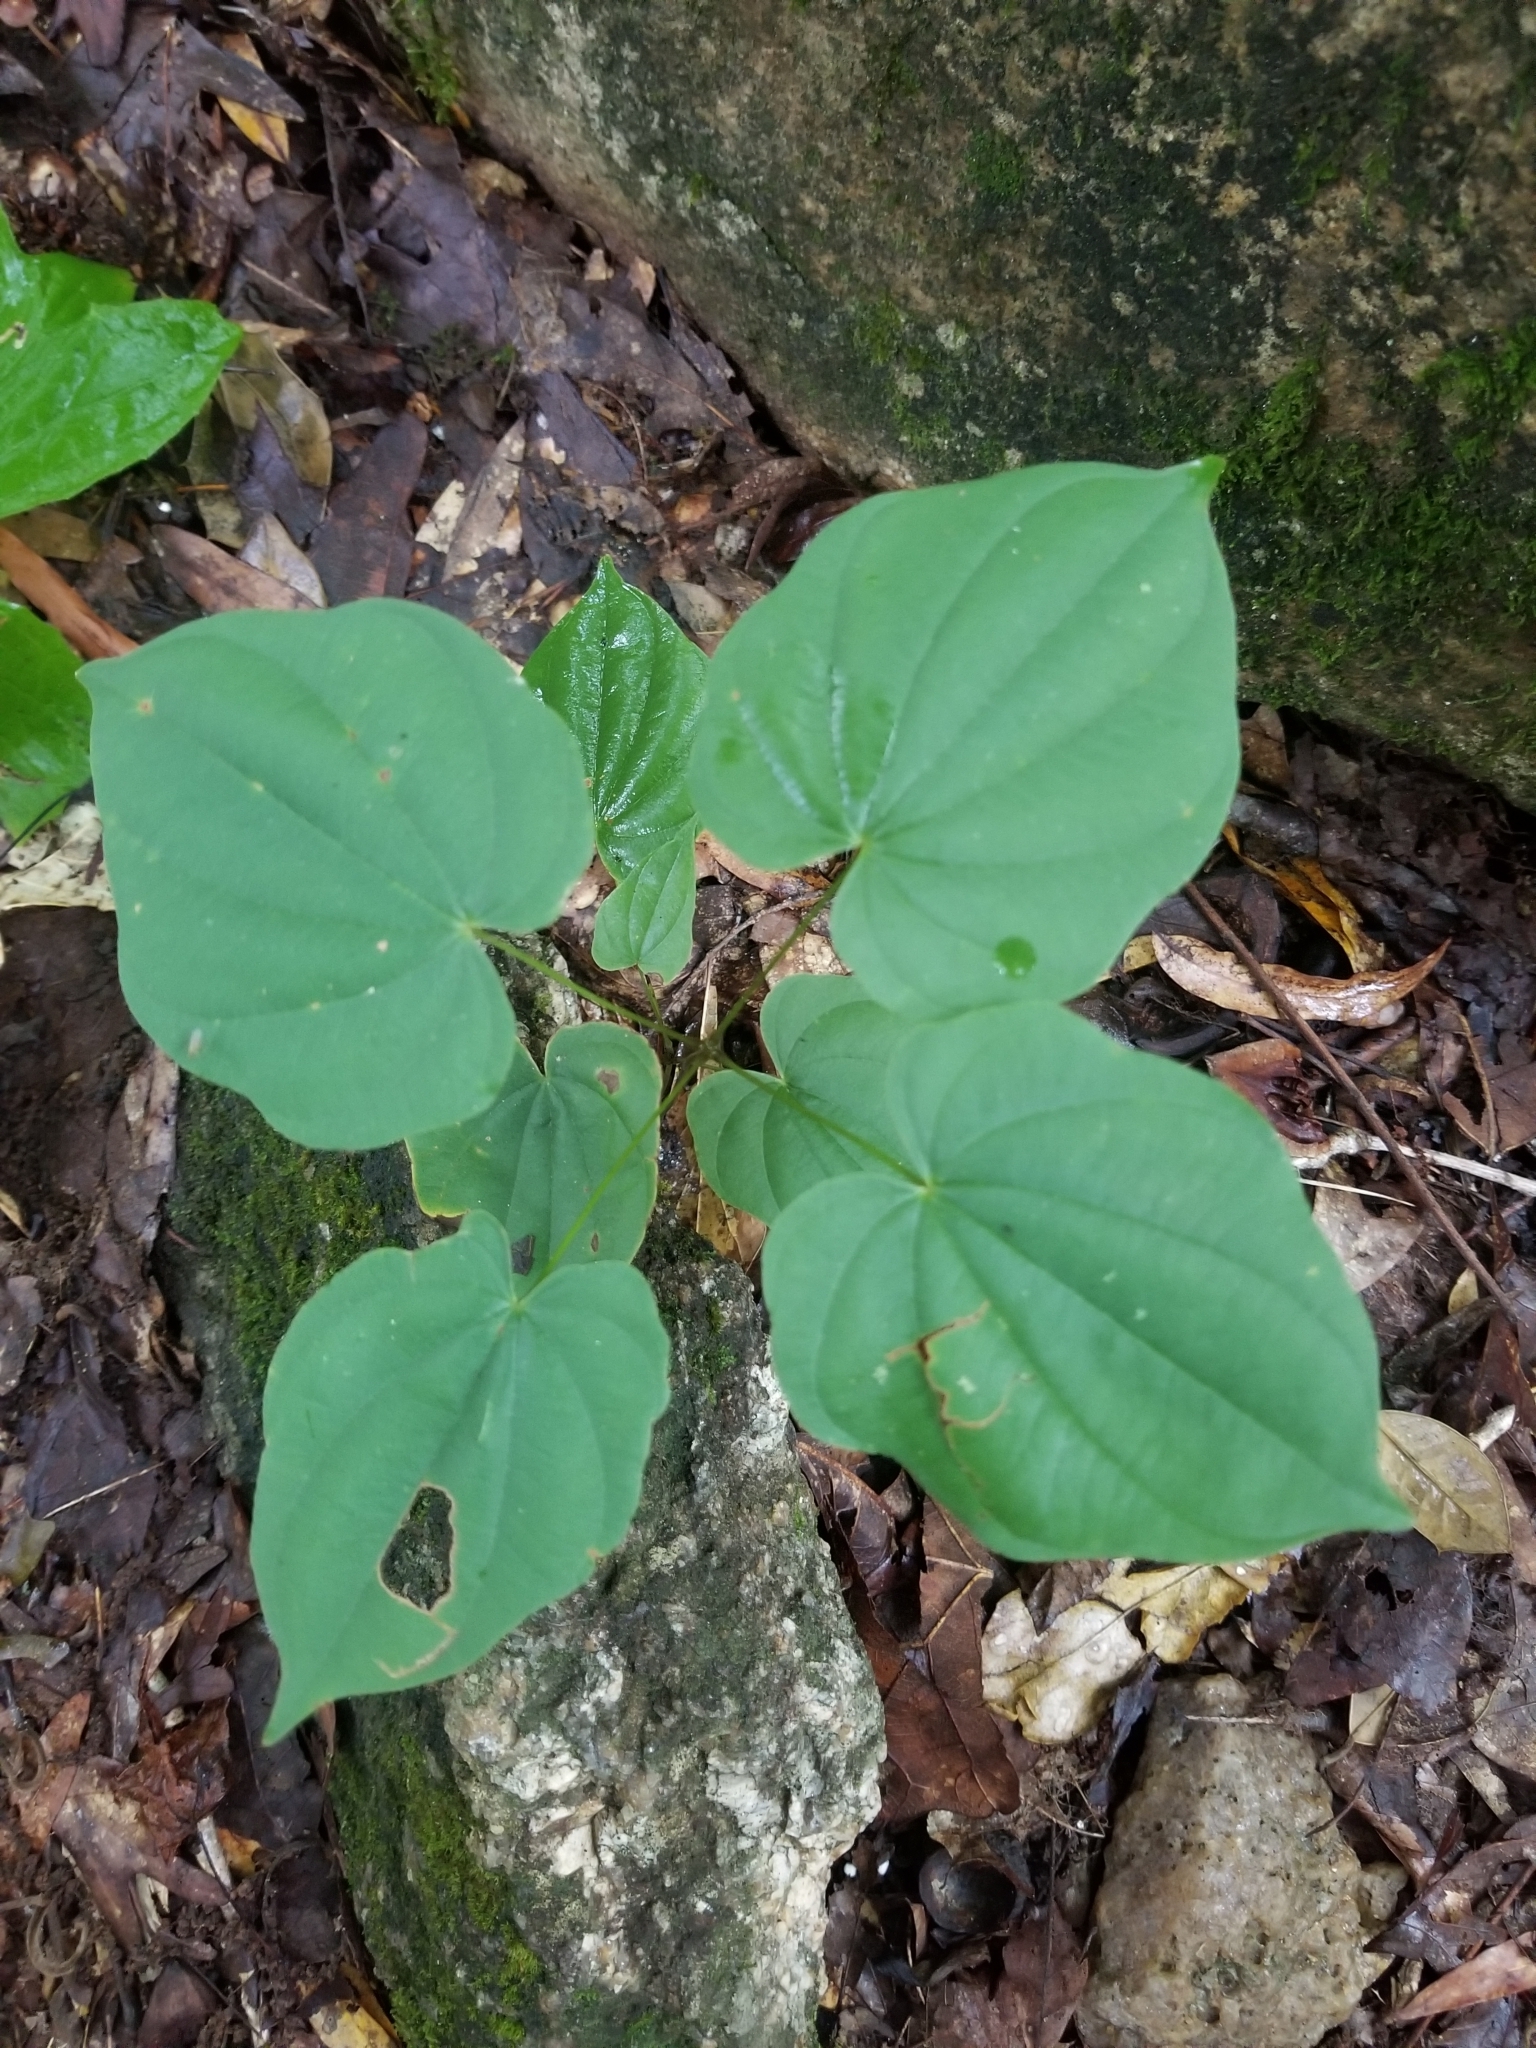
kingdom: Plantae
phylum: Tracheophyta
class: Liliopsida
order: Dioscoreales
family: Dioscoreaceae
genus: Dioscorea
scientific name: Dioscorea villosa
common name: Wild yam
